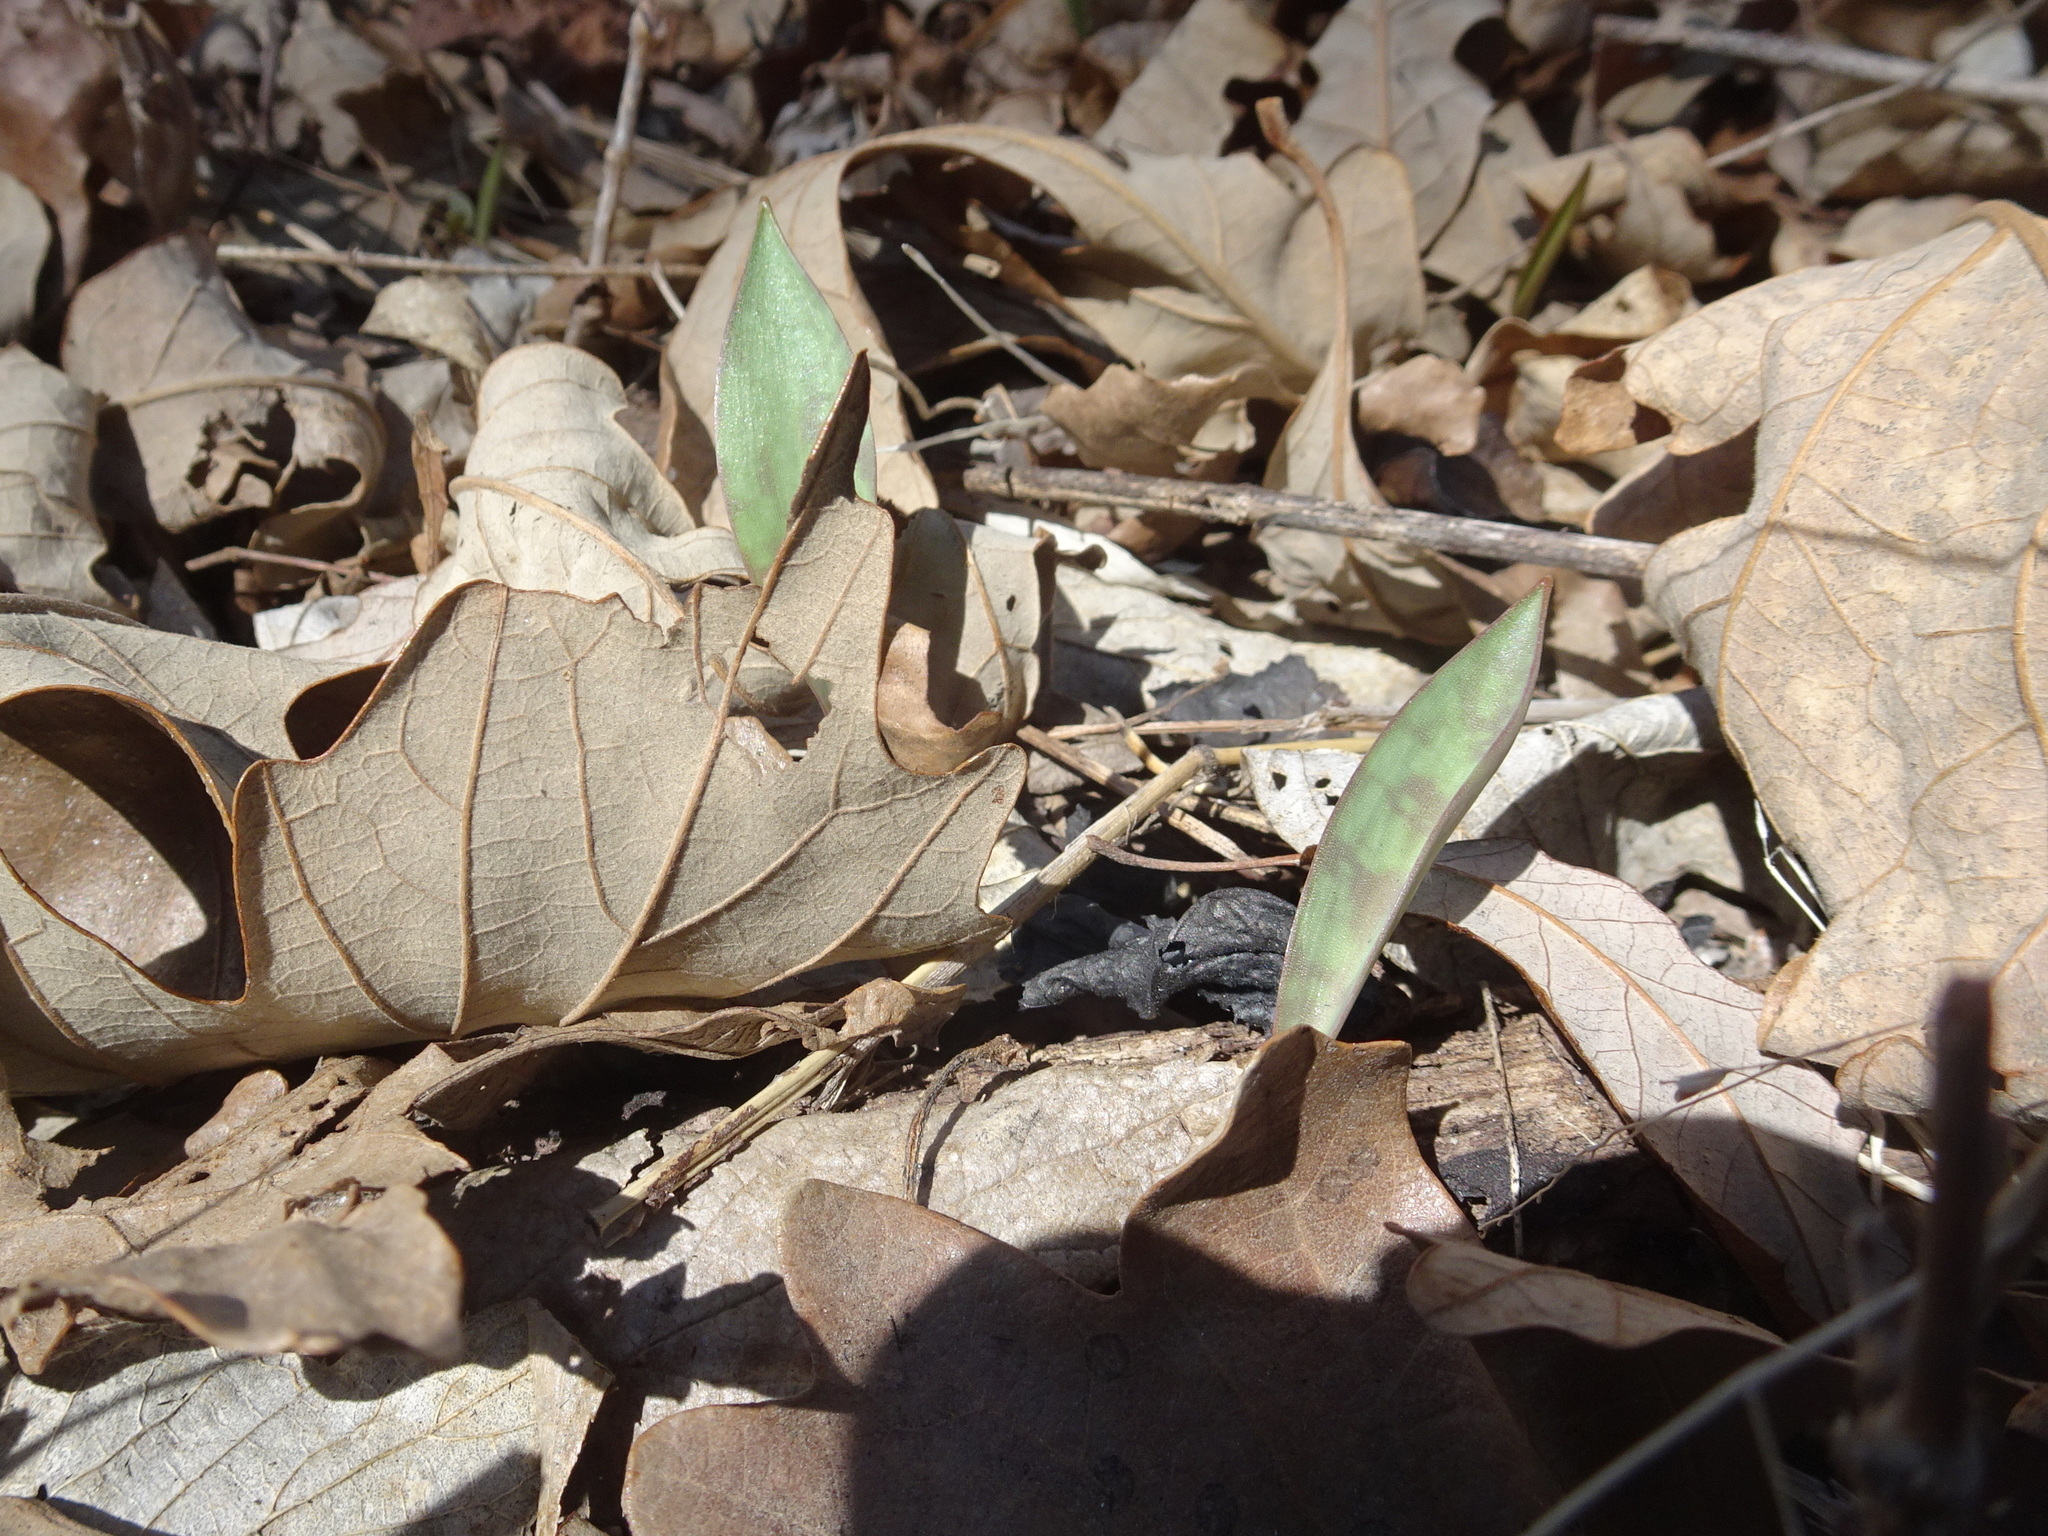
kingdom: Plantae
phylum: Tracheophyta
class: Liliopsida
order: Liliales
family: Liliaceae
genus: Erythronium
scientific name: Erythronium albidum
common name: White trout-lily
